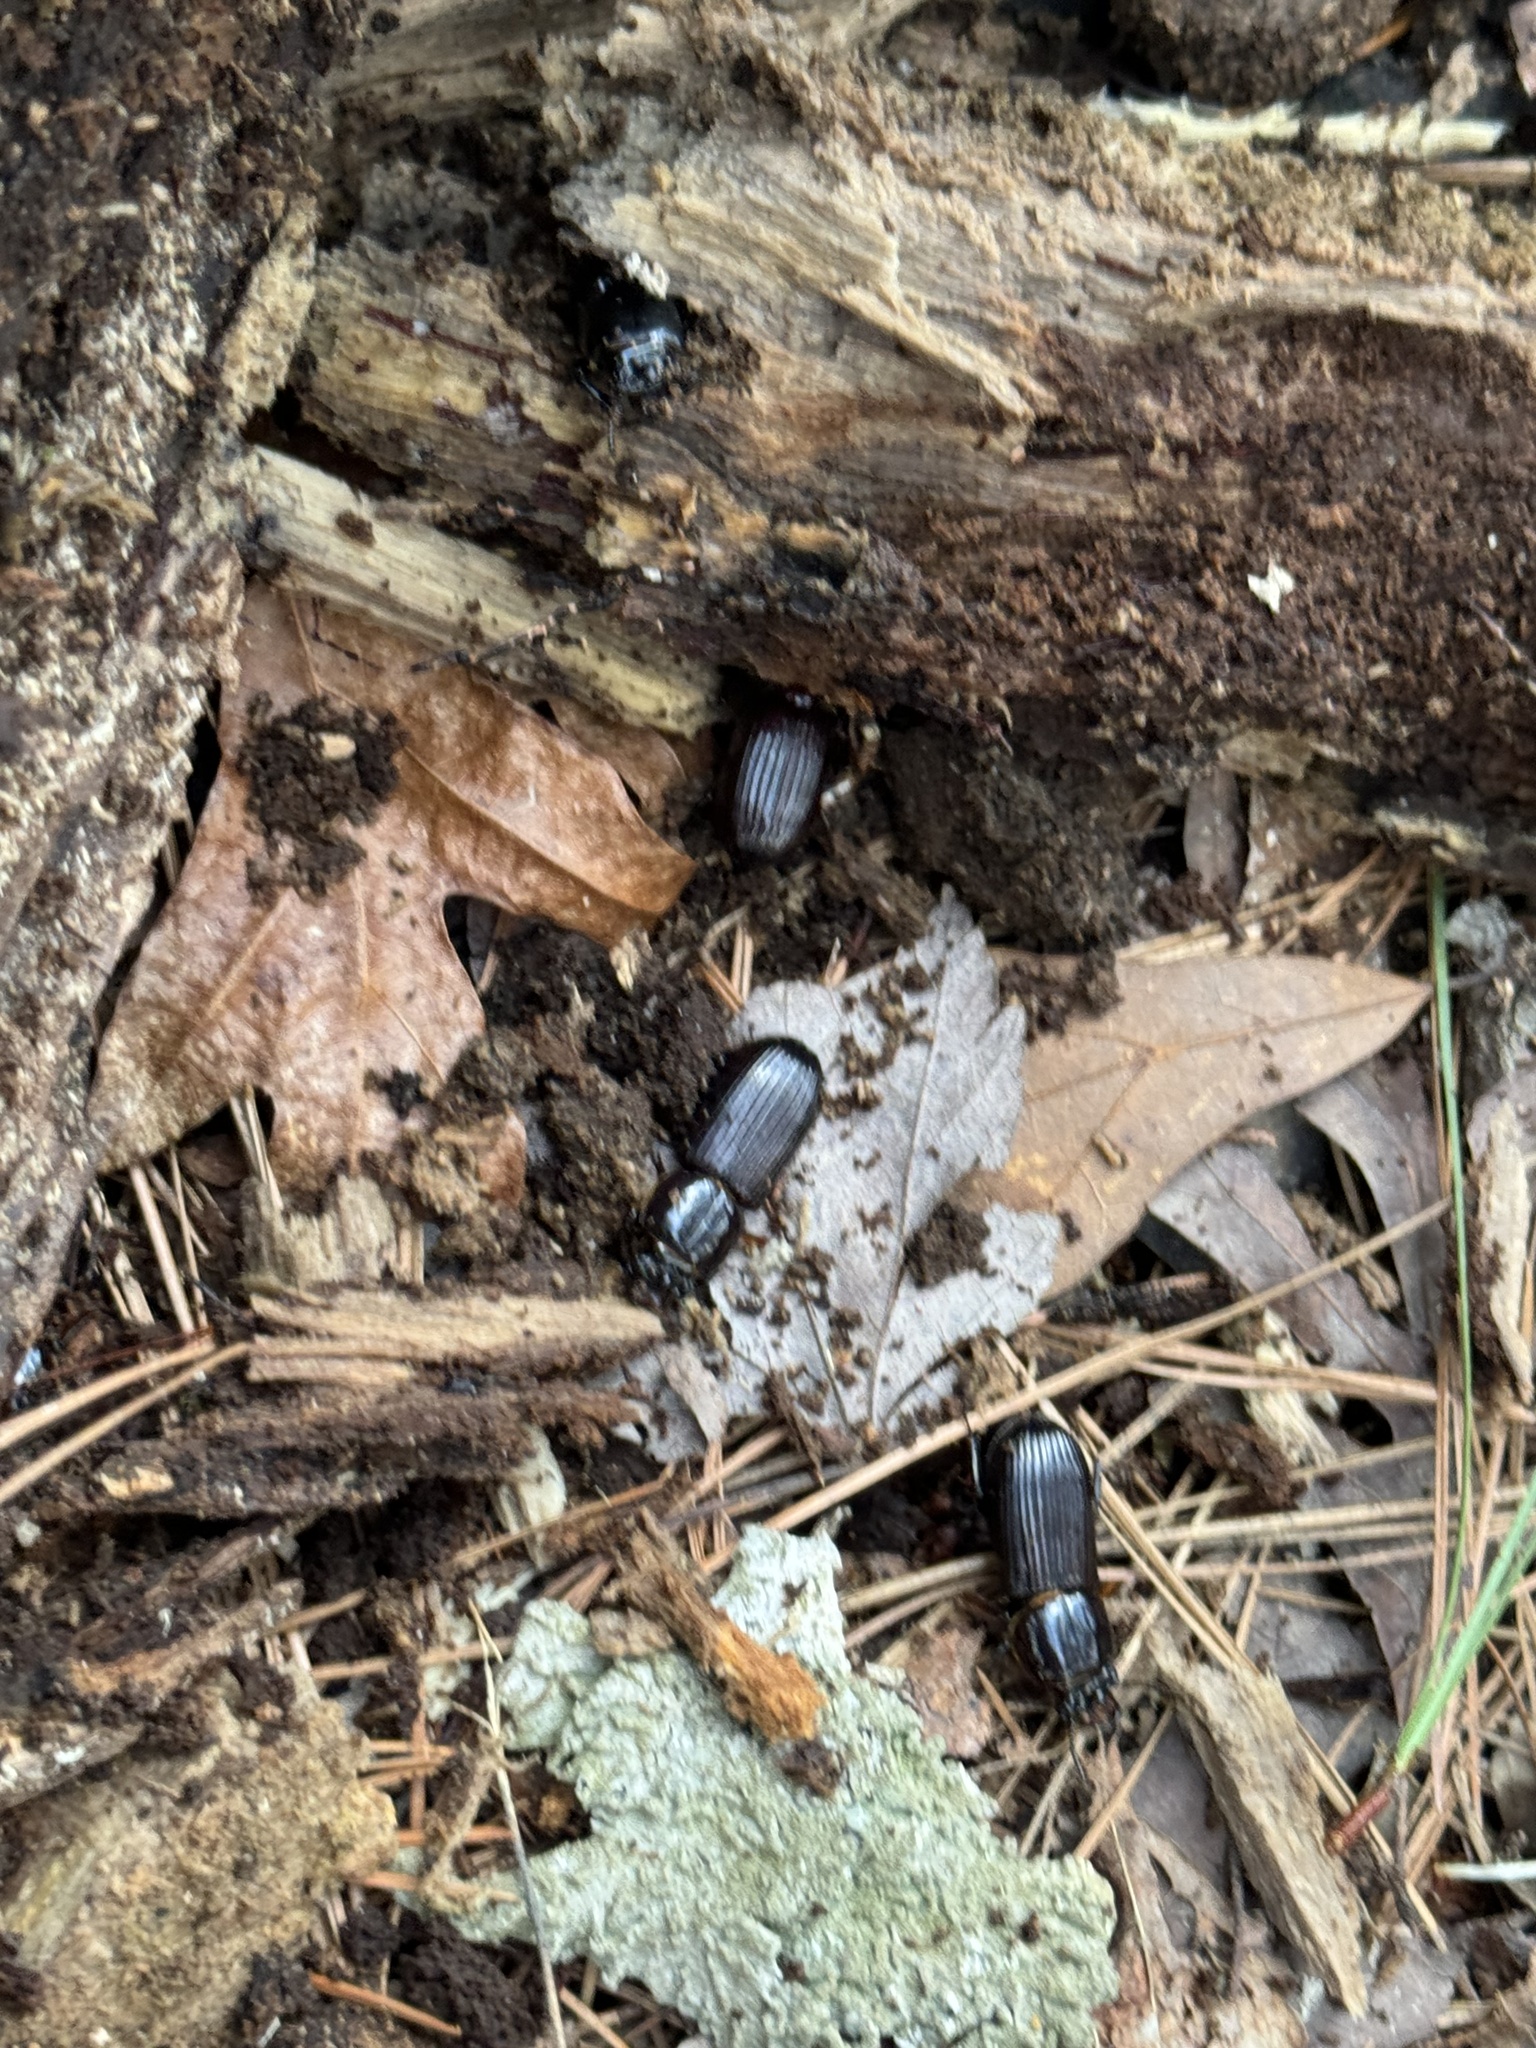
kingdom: Animalia
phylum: Arthropoda
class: Insecta
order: Coleoptera
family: Passalidae
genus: Odontotaenius
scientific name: Odontotaenius disjunctus
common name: Patent leather beetle
